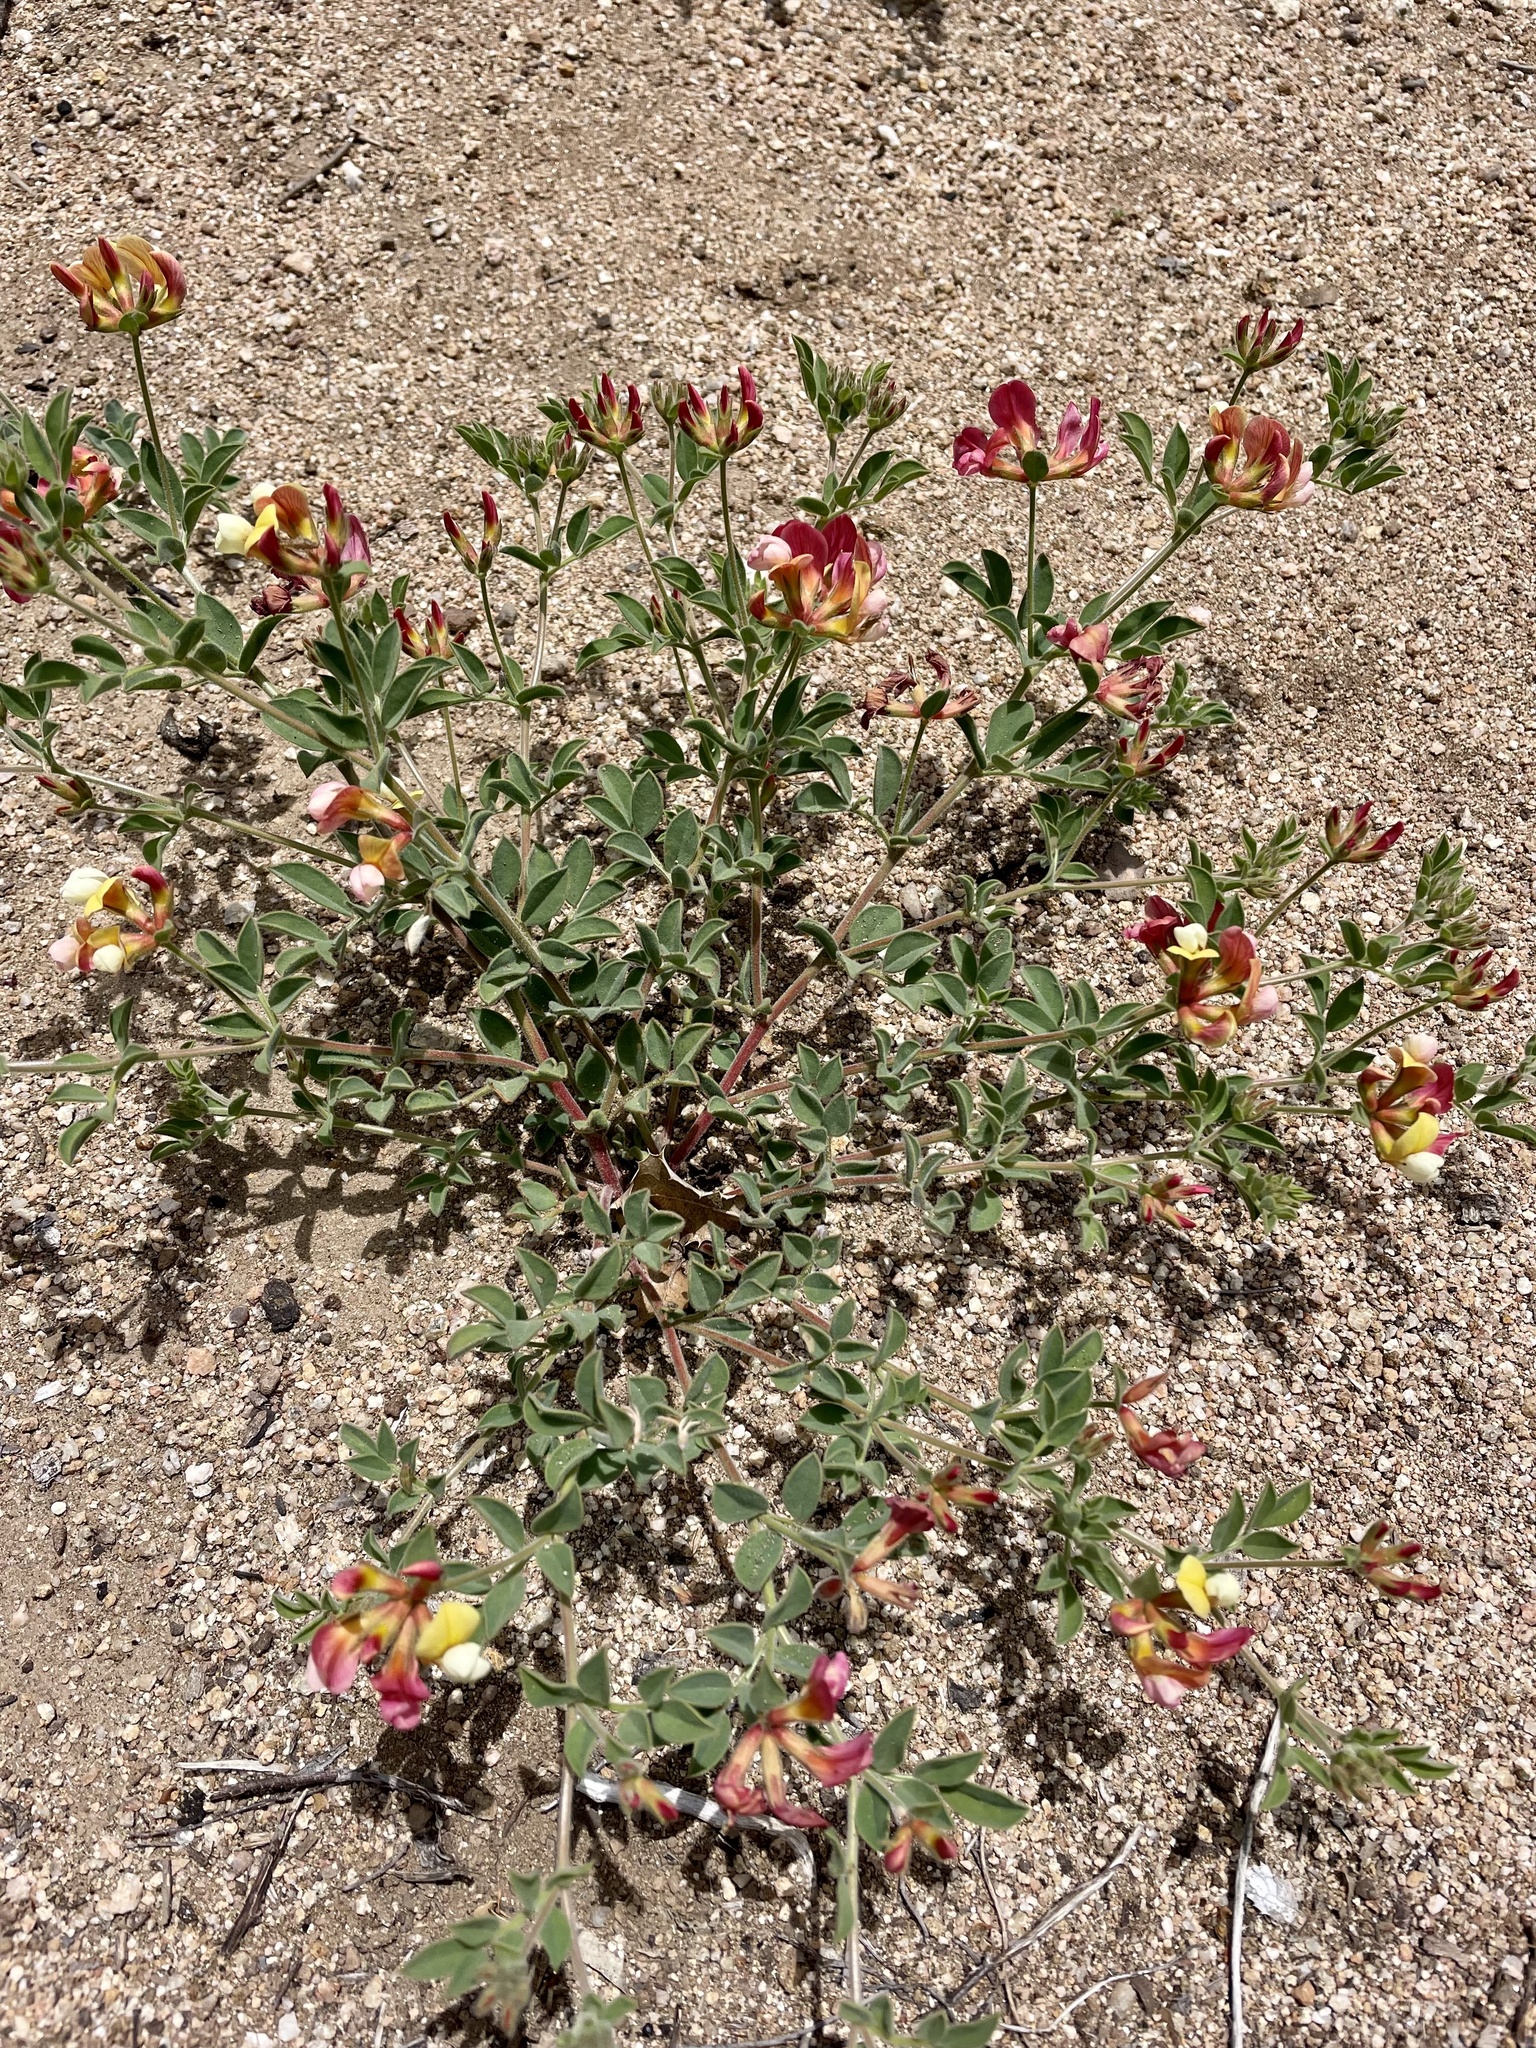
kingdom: Plantae
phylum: Tracheophyta
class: Magnoliopsida
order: Fabales
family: Fabaceae
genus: Acmispon
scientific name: Acmispon grandiflorus
